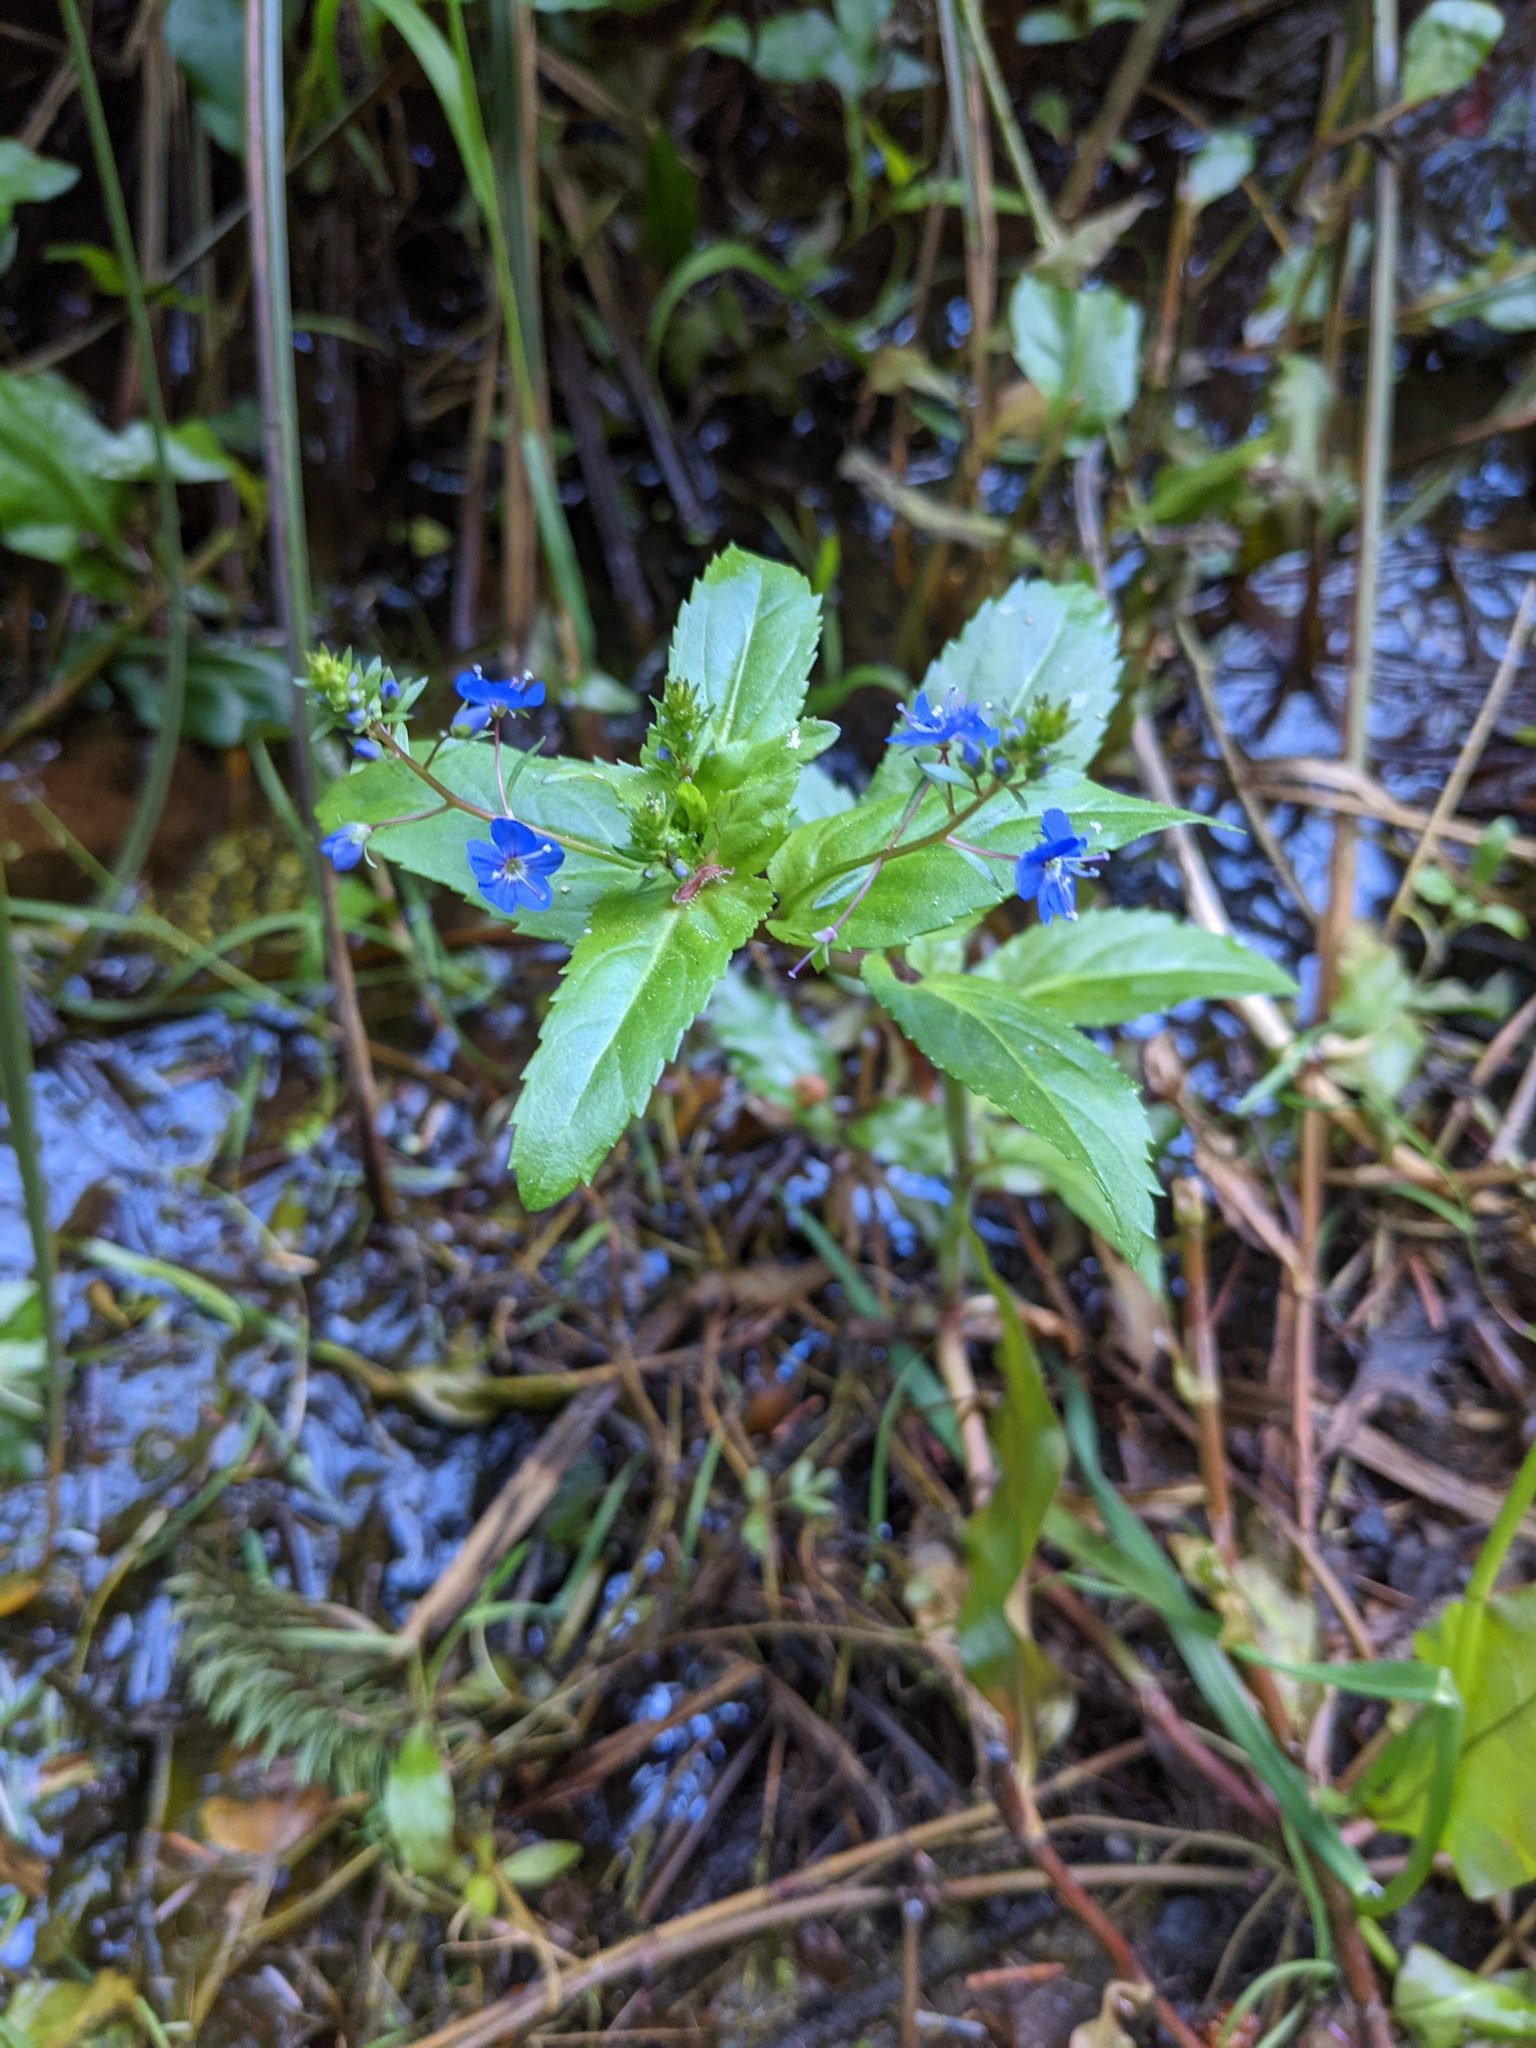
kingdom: Plantae
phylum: Tracheophyta
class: Magnoliopsida
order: Lamiales
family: Plantaginaceae
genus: Veronica
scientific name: Veronica americana
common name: American brooklime
